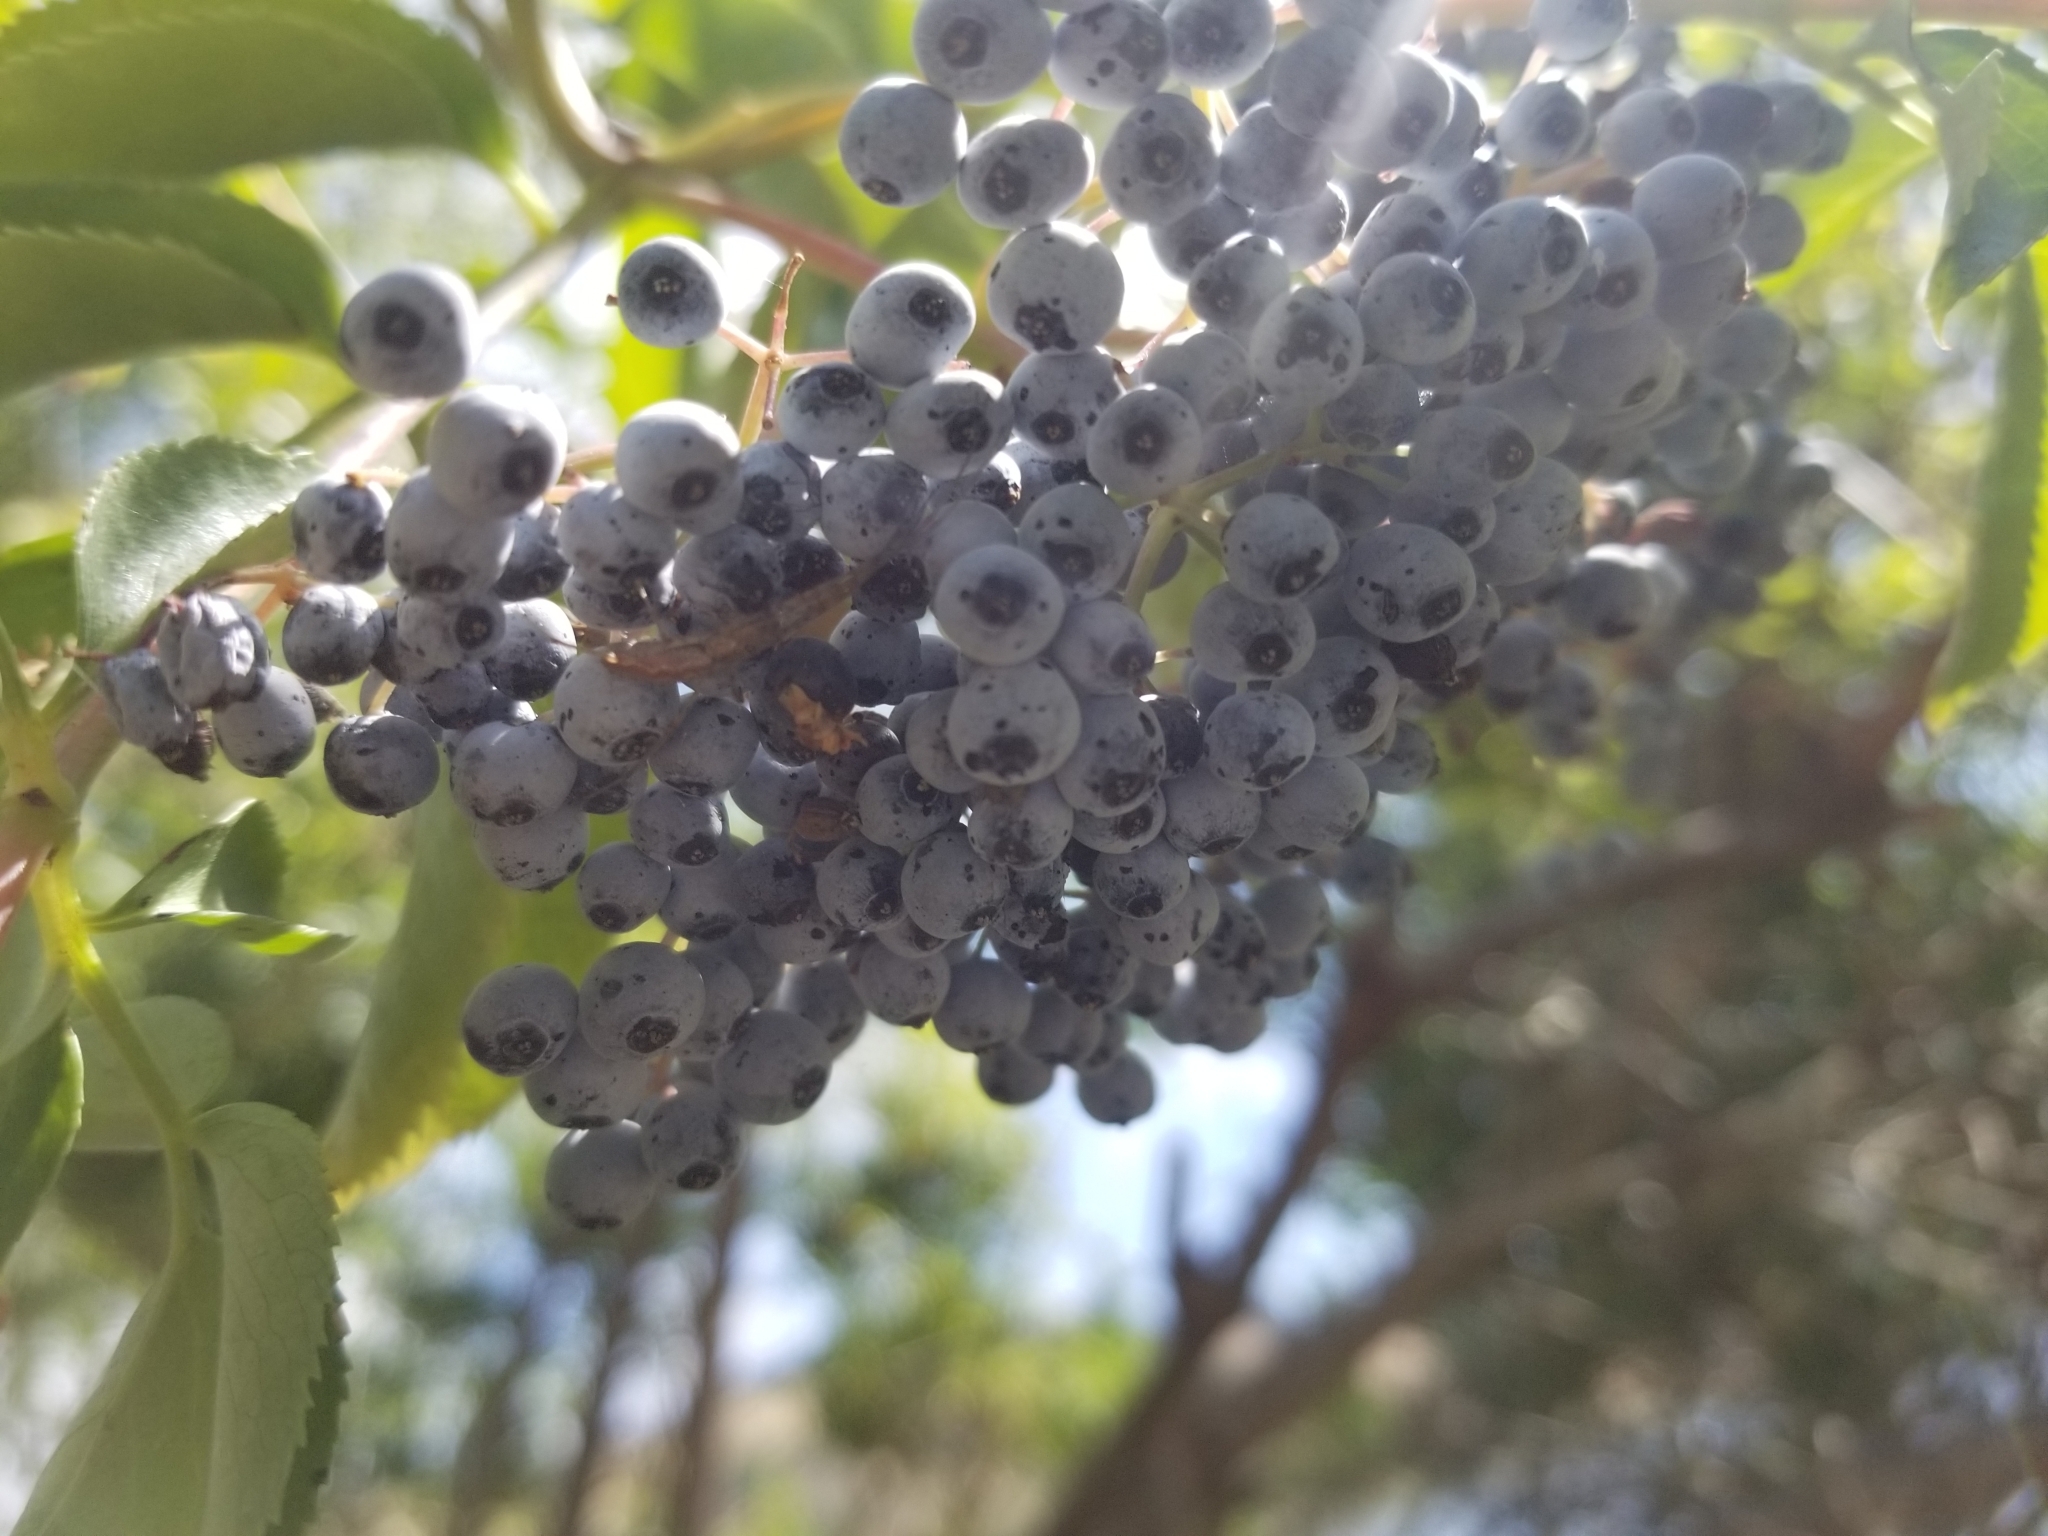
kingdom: Plantae
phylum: Tracheophyta
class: Magnoliopsida
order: Dipsacales
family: Viburnaceae
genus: Sambucus
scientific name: Sambucus cerulea
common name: Blue elder
